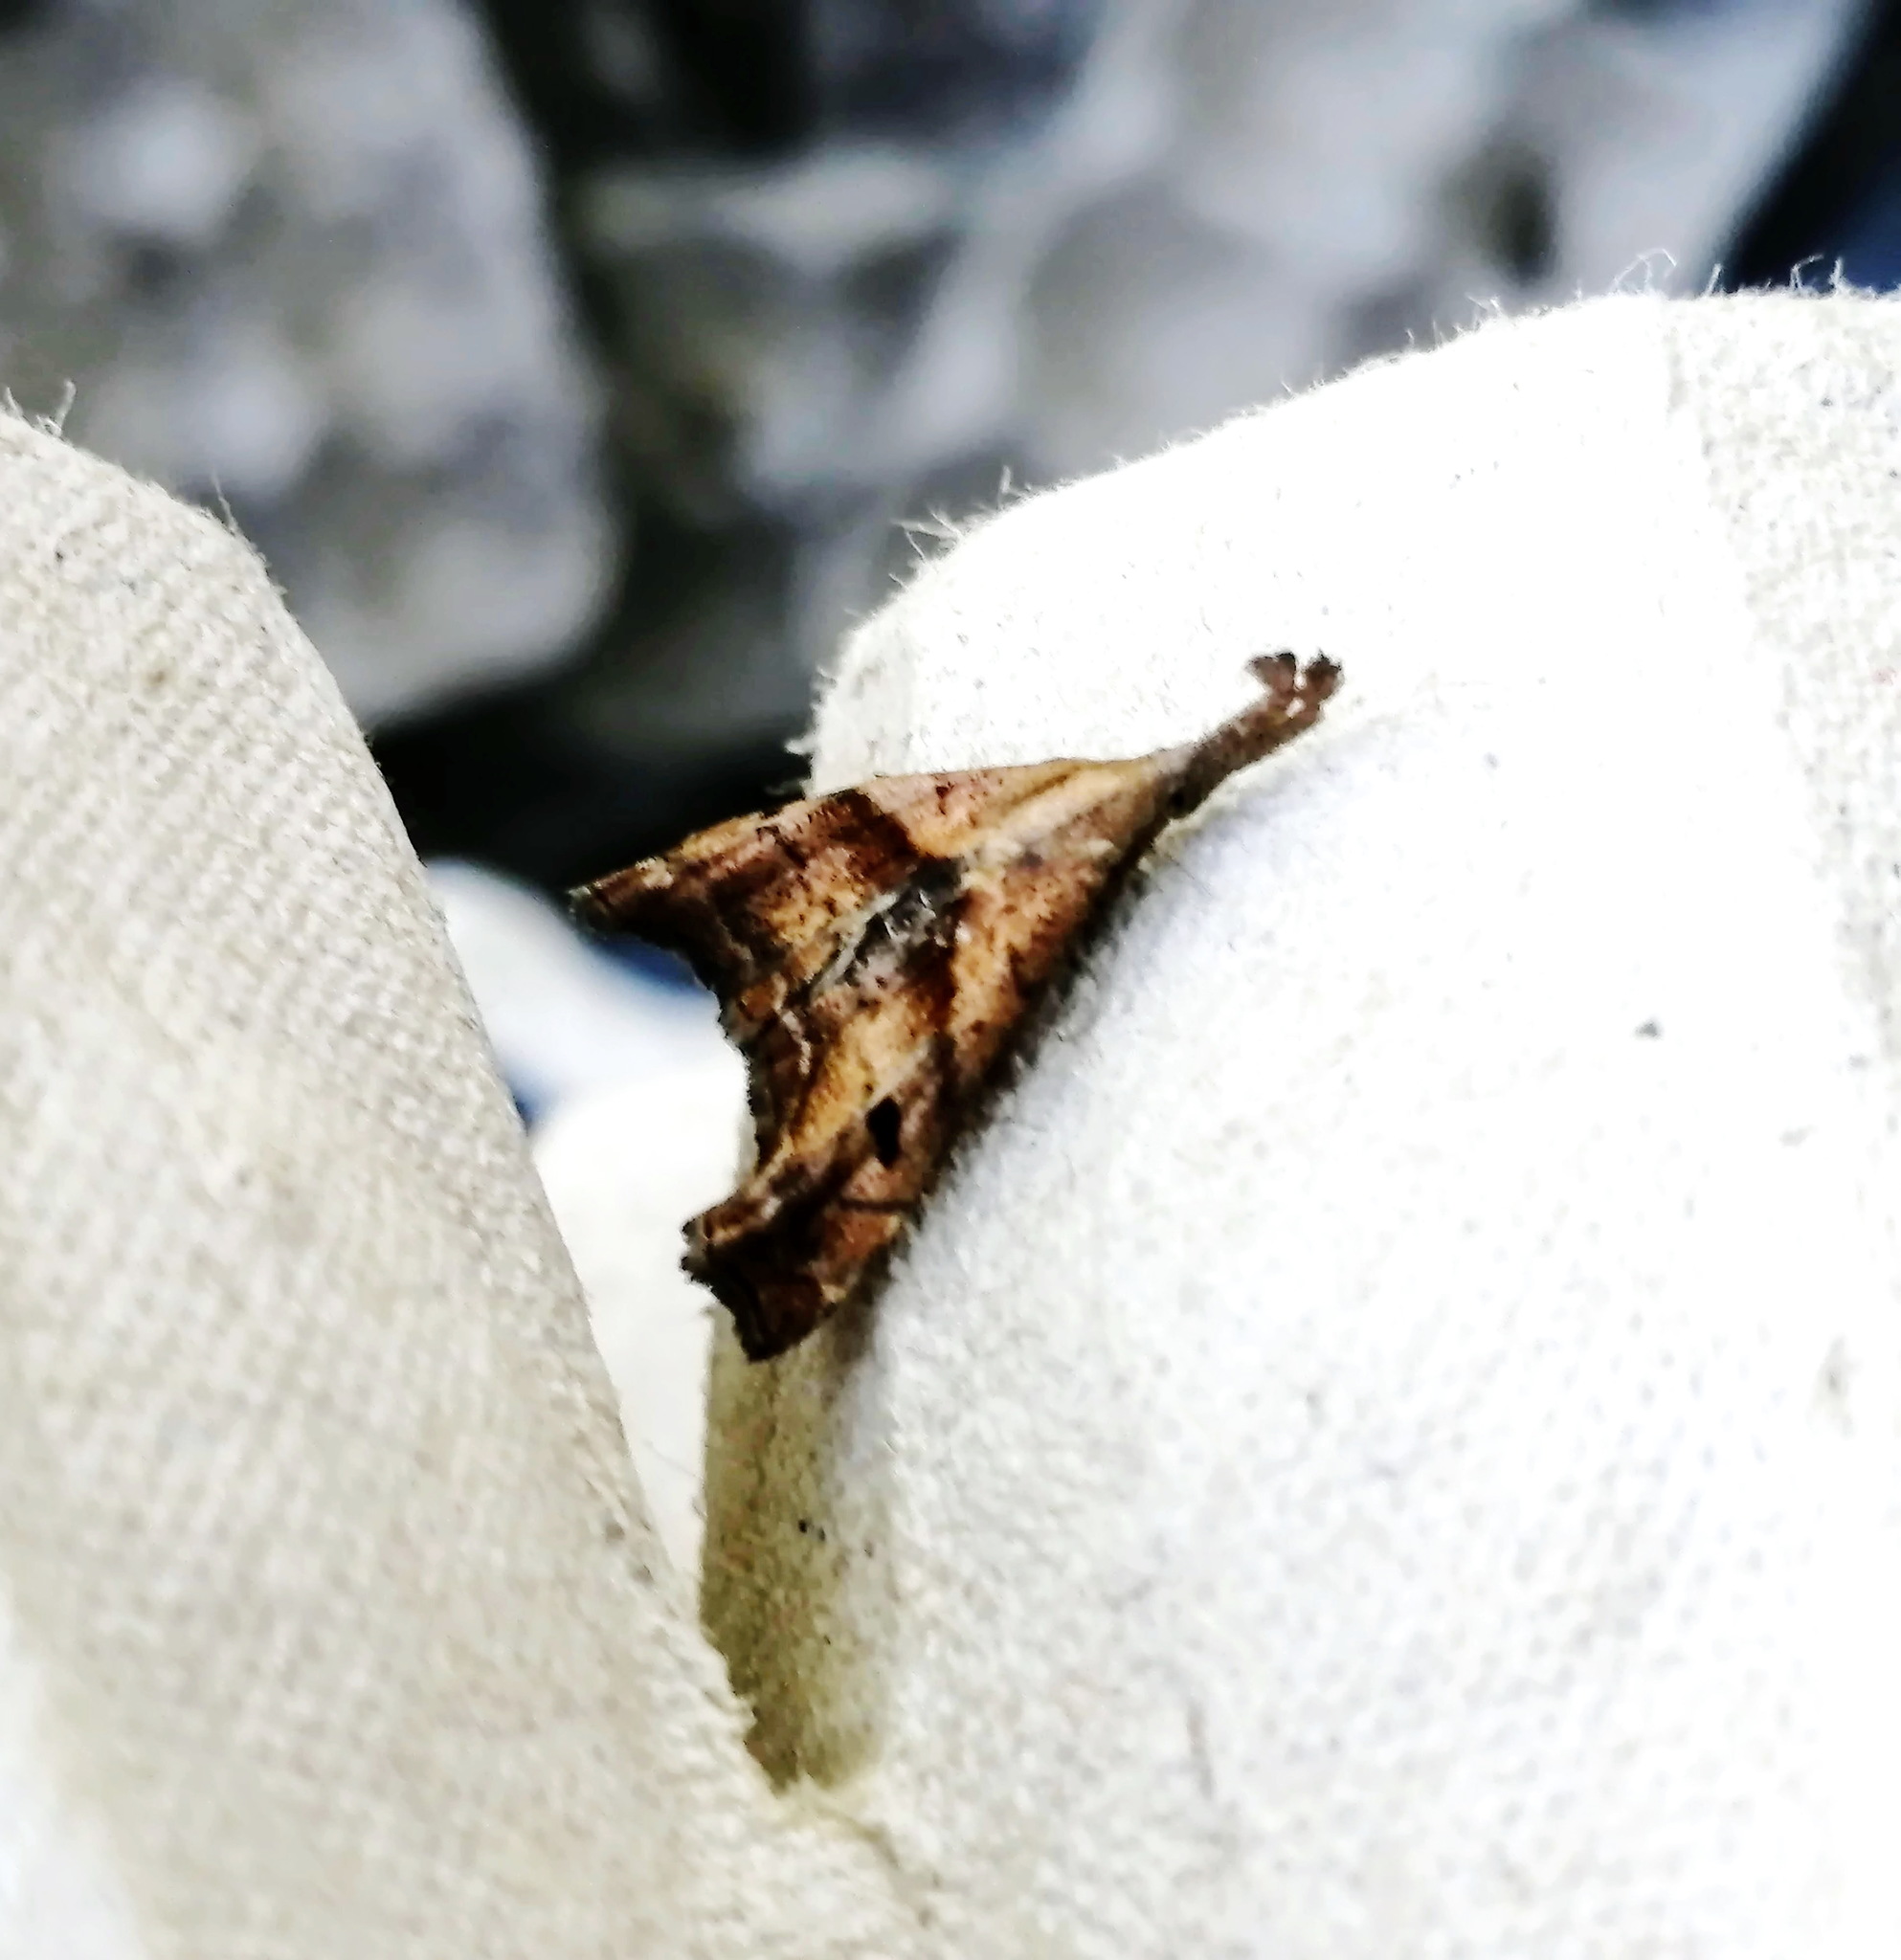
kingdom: Animalia
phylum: Arthropoda
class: Insecta
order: Lepidoptera
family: Erebidae
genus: Palthis
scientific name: Palthis angulalis
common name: Dark-spotted palthis moth
